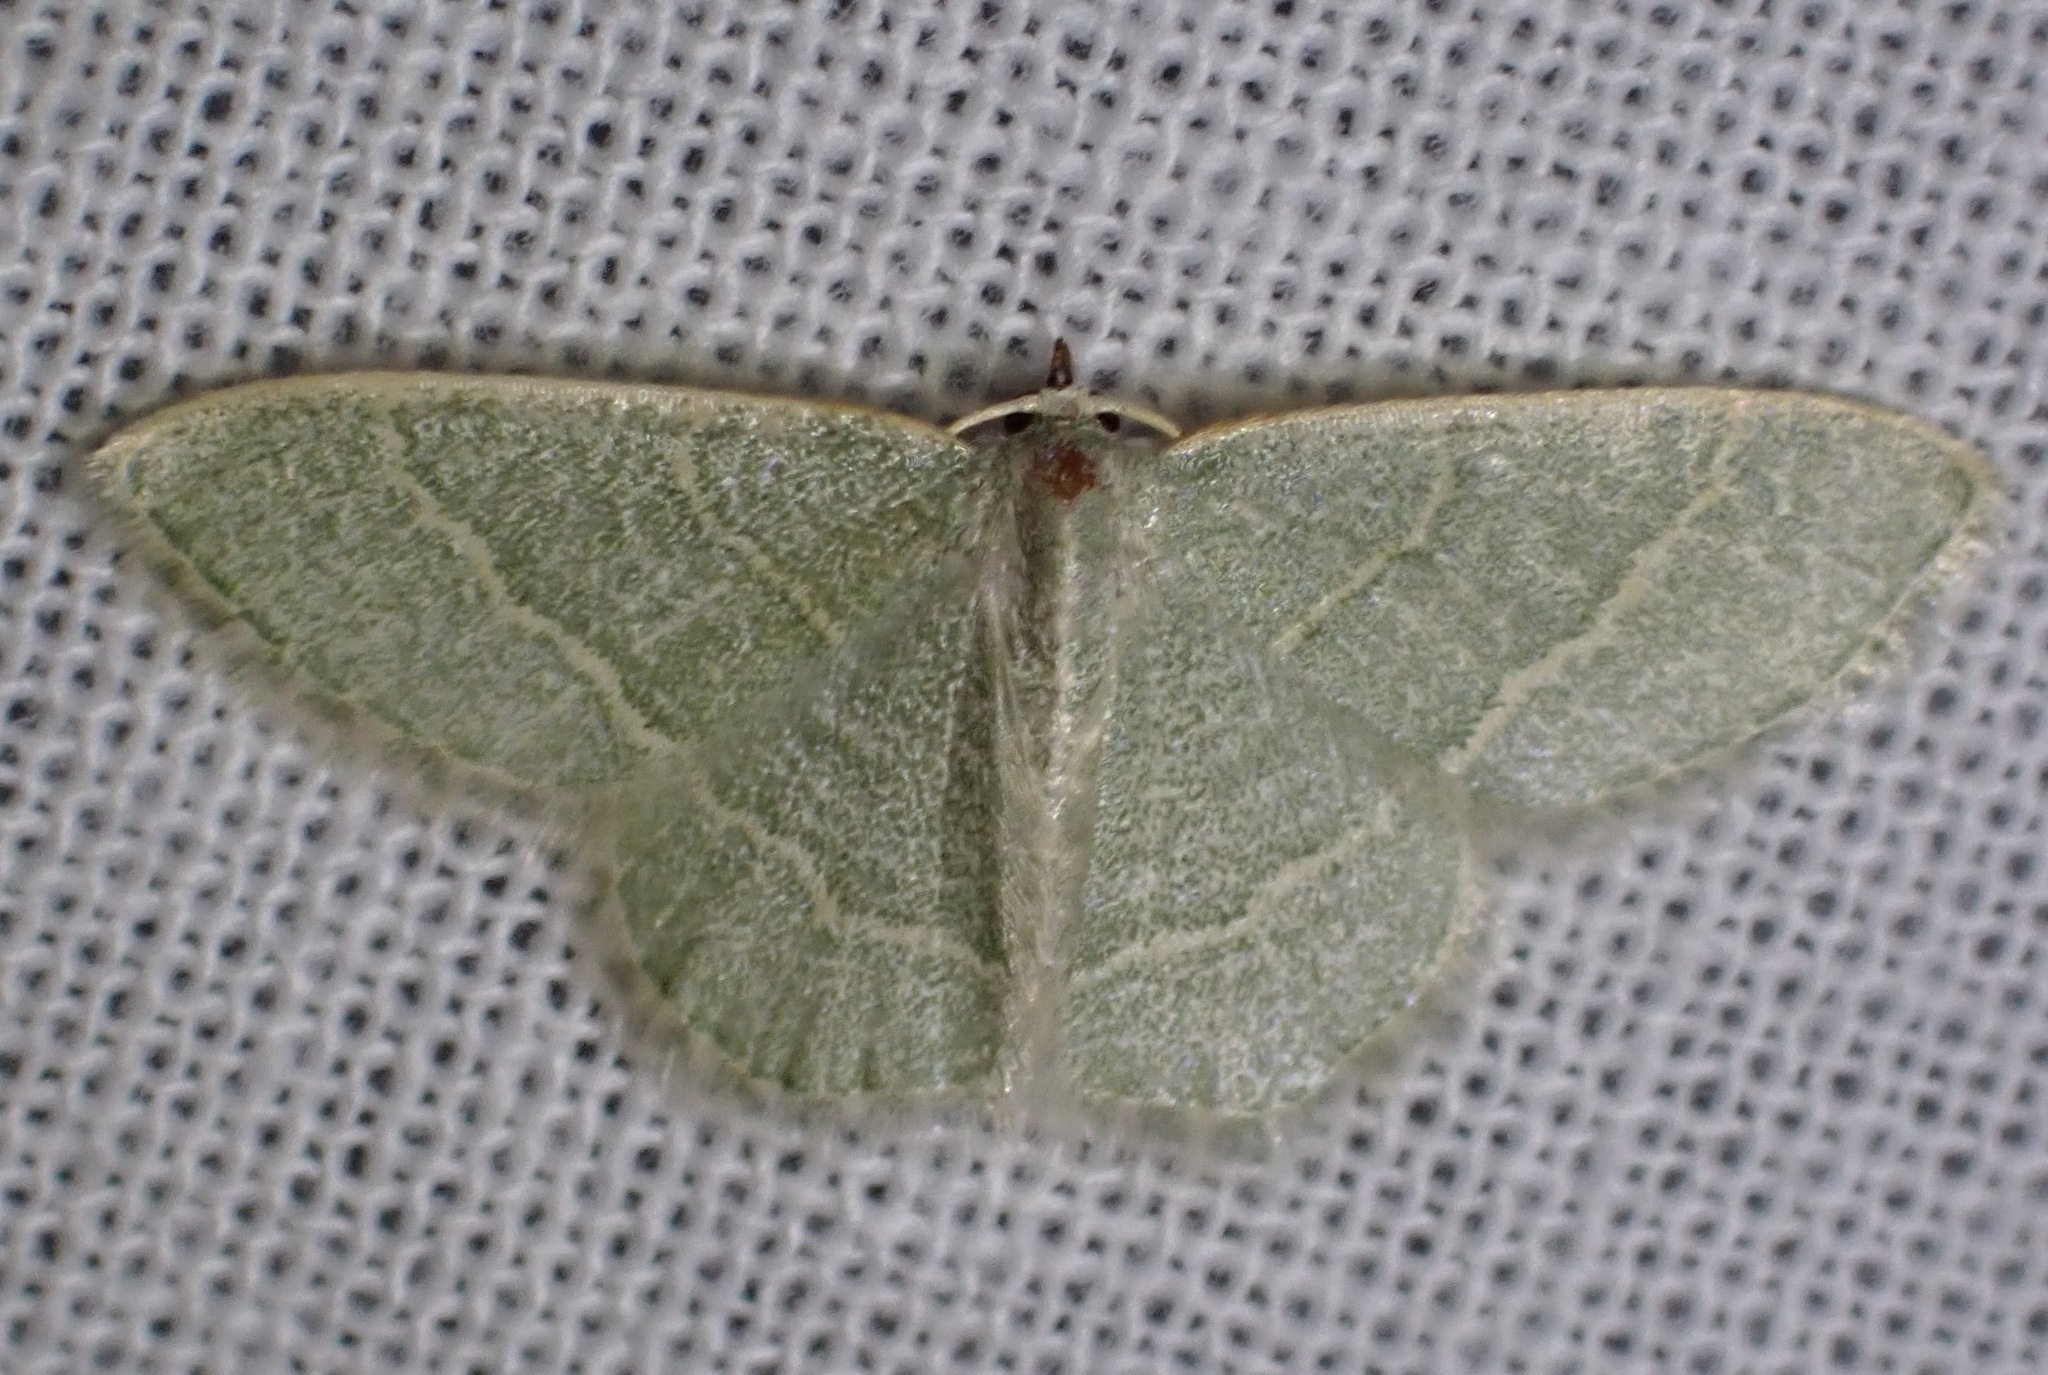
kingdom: Animalia
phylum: Arthropoda
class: Insecta
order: Lepidoptera
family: Geometridae
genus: Chlorochlamys
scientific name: Chlorochlamys appellaria
